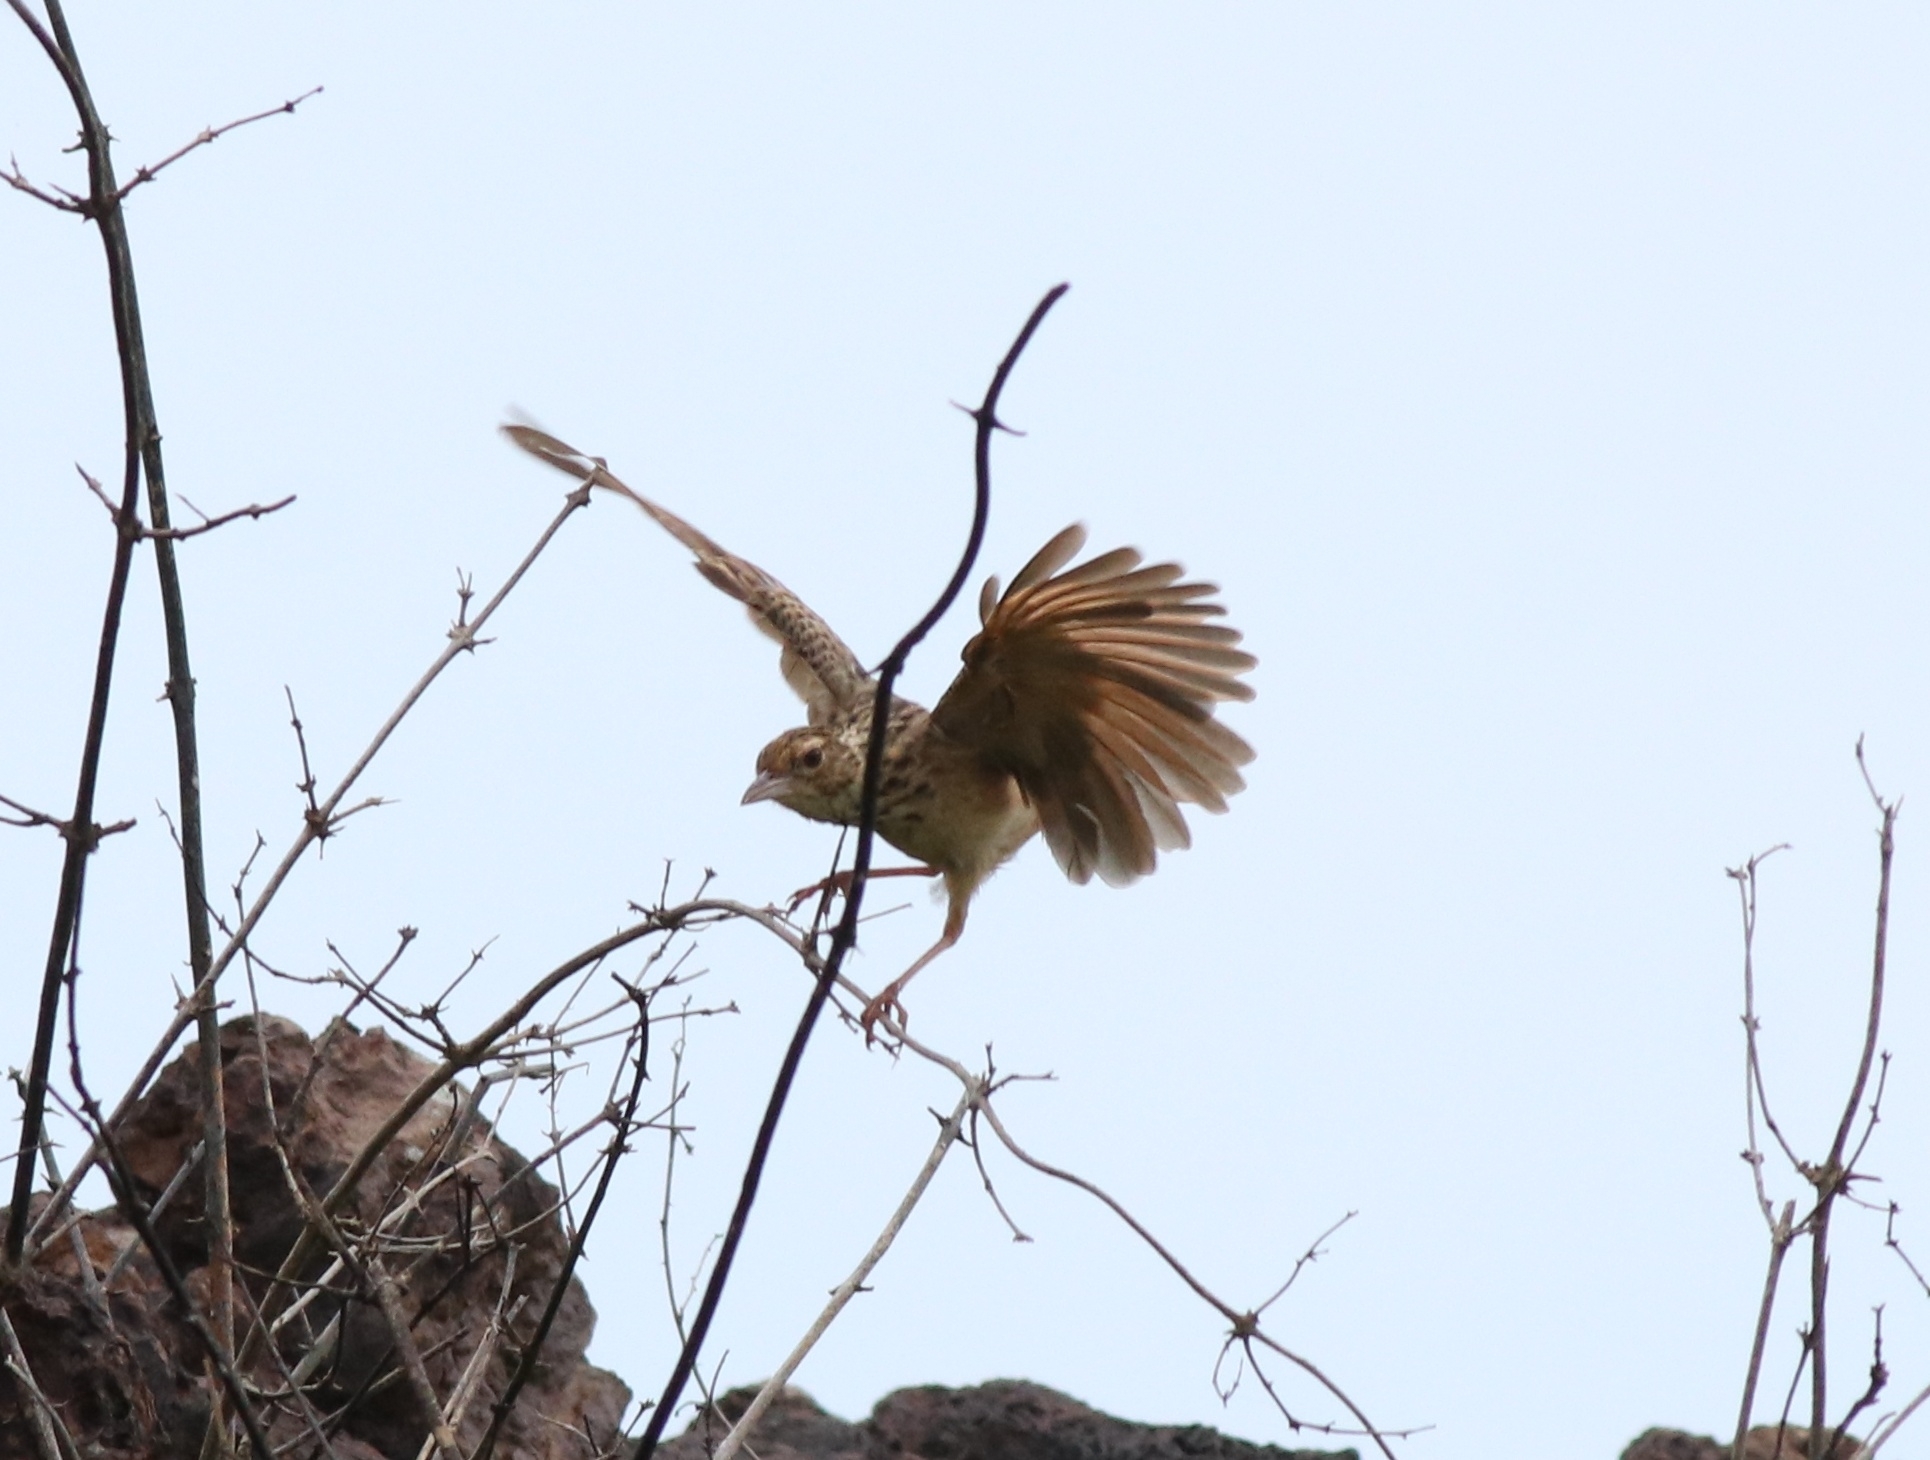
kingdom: Animalia
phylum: Chordata
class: Aves
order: Passeriformes
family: Alaudidae
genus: Mirafra
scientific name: Mirafra affinis
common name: Jerdon's bushlark
